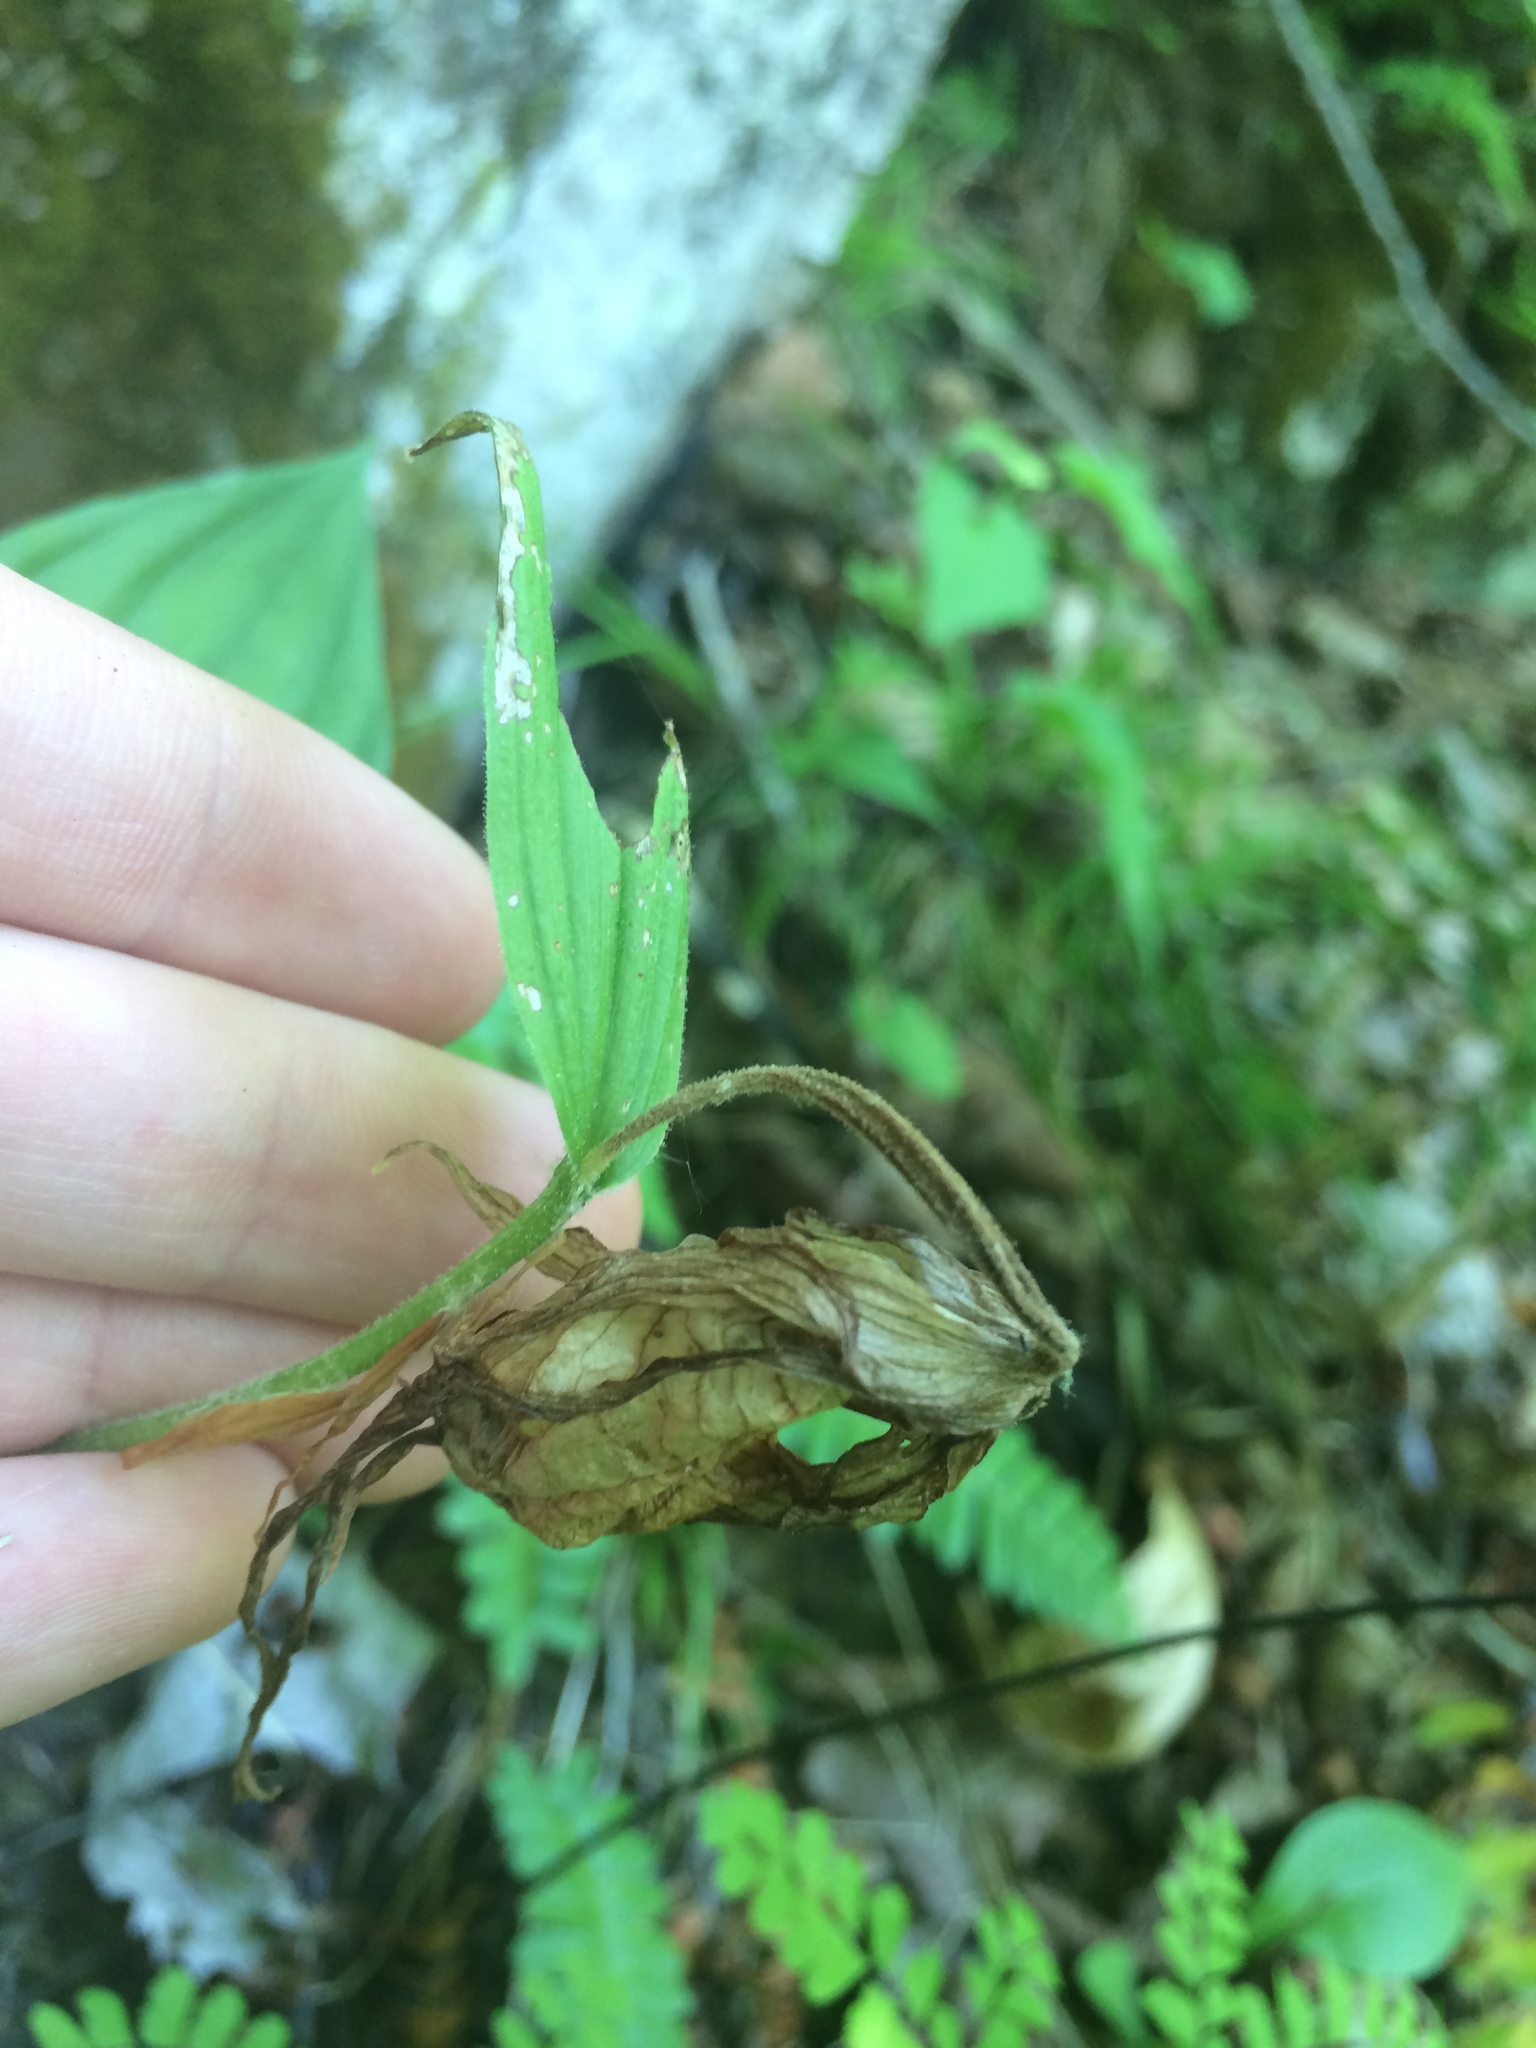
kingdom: Plantae
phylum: Tracheophyta
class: Liliopsida
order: Asparagales
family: Orchidaceae
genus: Cypripedium
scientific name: Cypripedium parviflorum
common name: American yellow lady's-slipper
